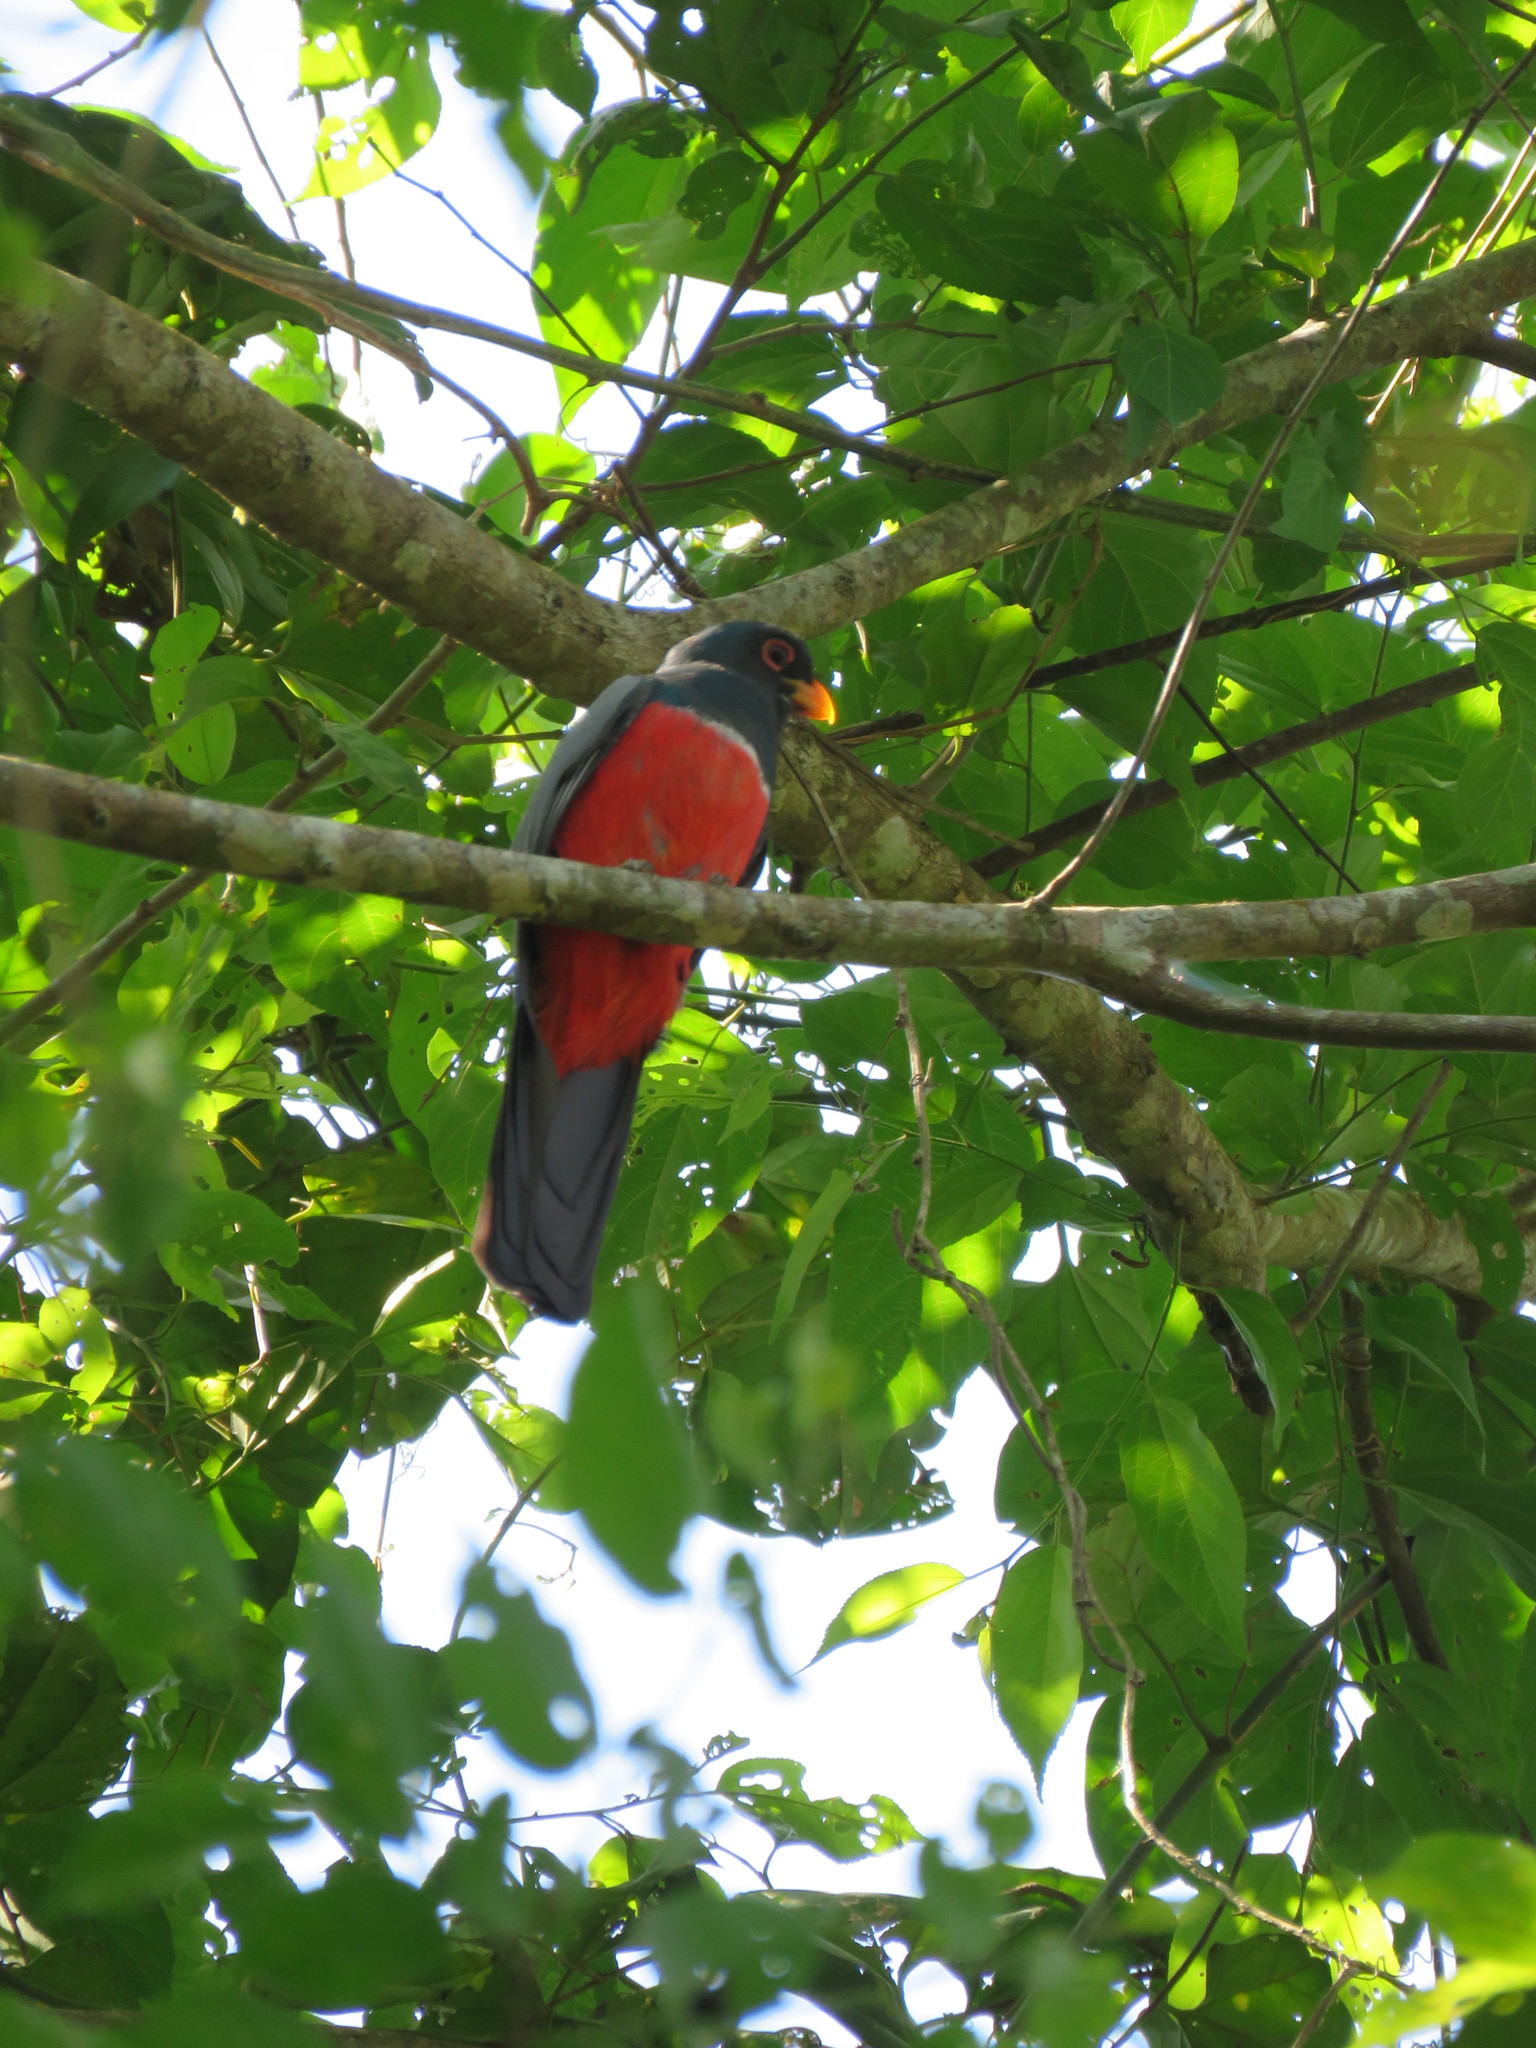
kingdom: Animalia
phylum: Chordata
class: Aves
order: Trogoniformes
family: Trogonidae
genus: Trogon
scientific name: Trogon melanurus
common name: Black-tailed trogon
